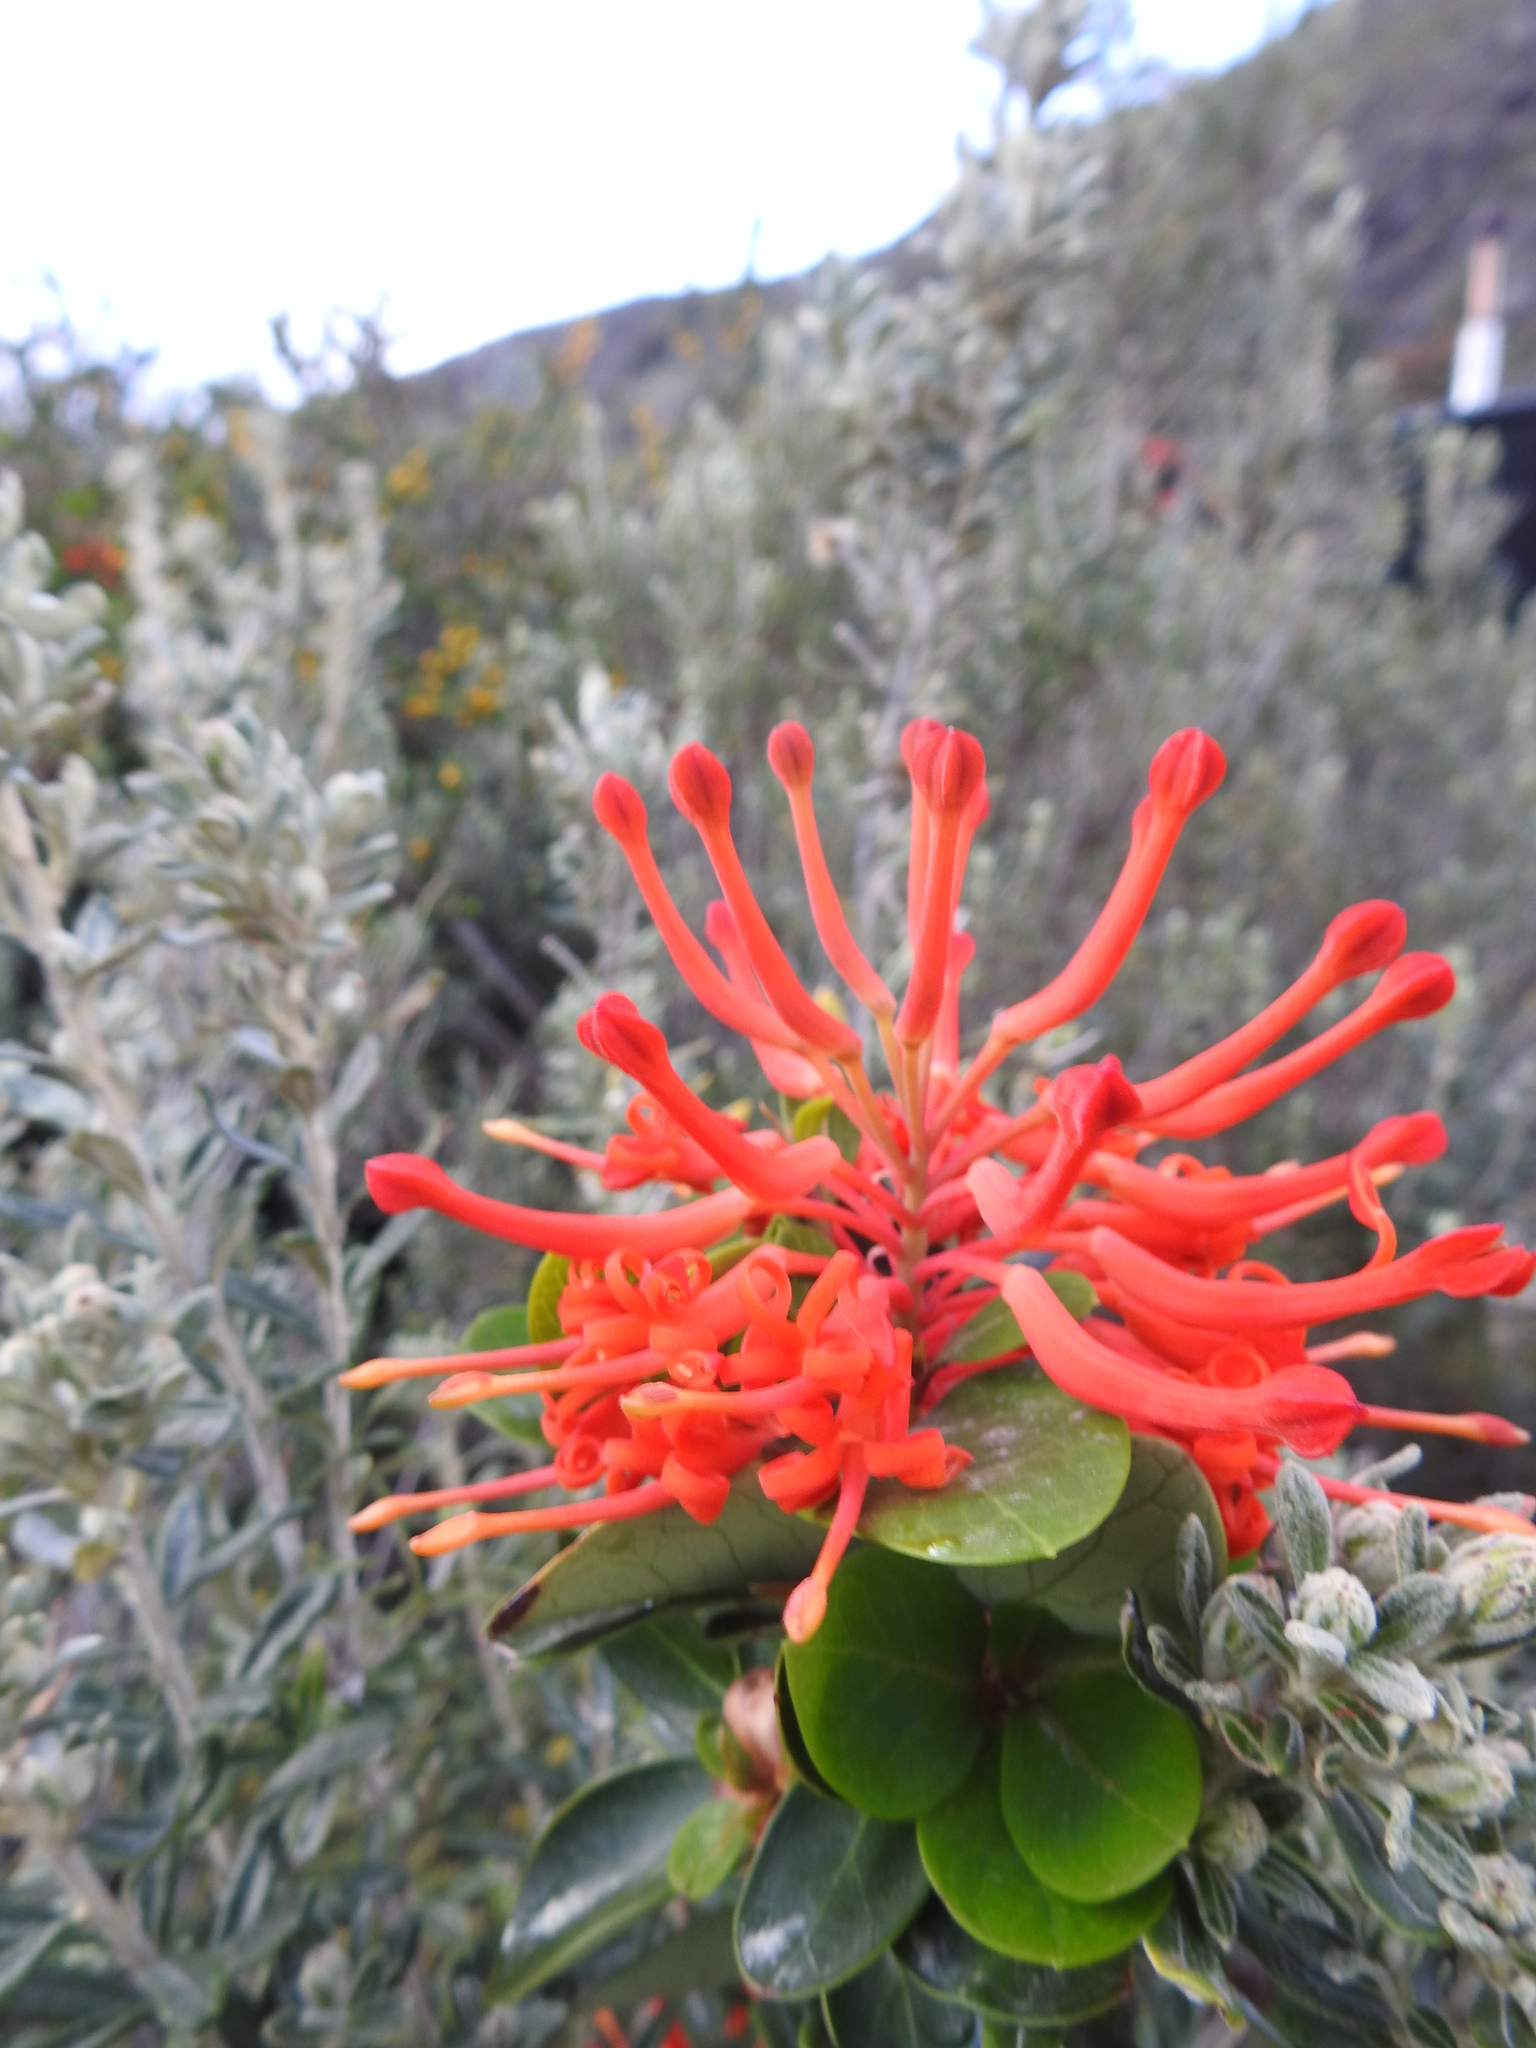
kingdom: Plantae
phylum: Tracheophyta
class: Magnoliopsida
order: Proteales
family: Proteaceae
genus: Embothrium
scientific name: Embothrium coccineum
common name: Chilean firebush
